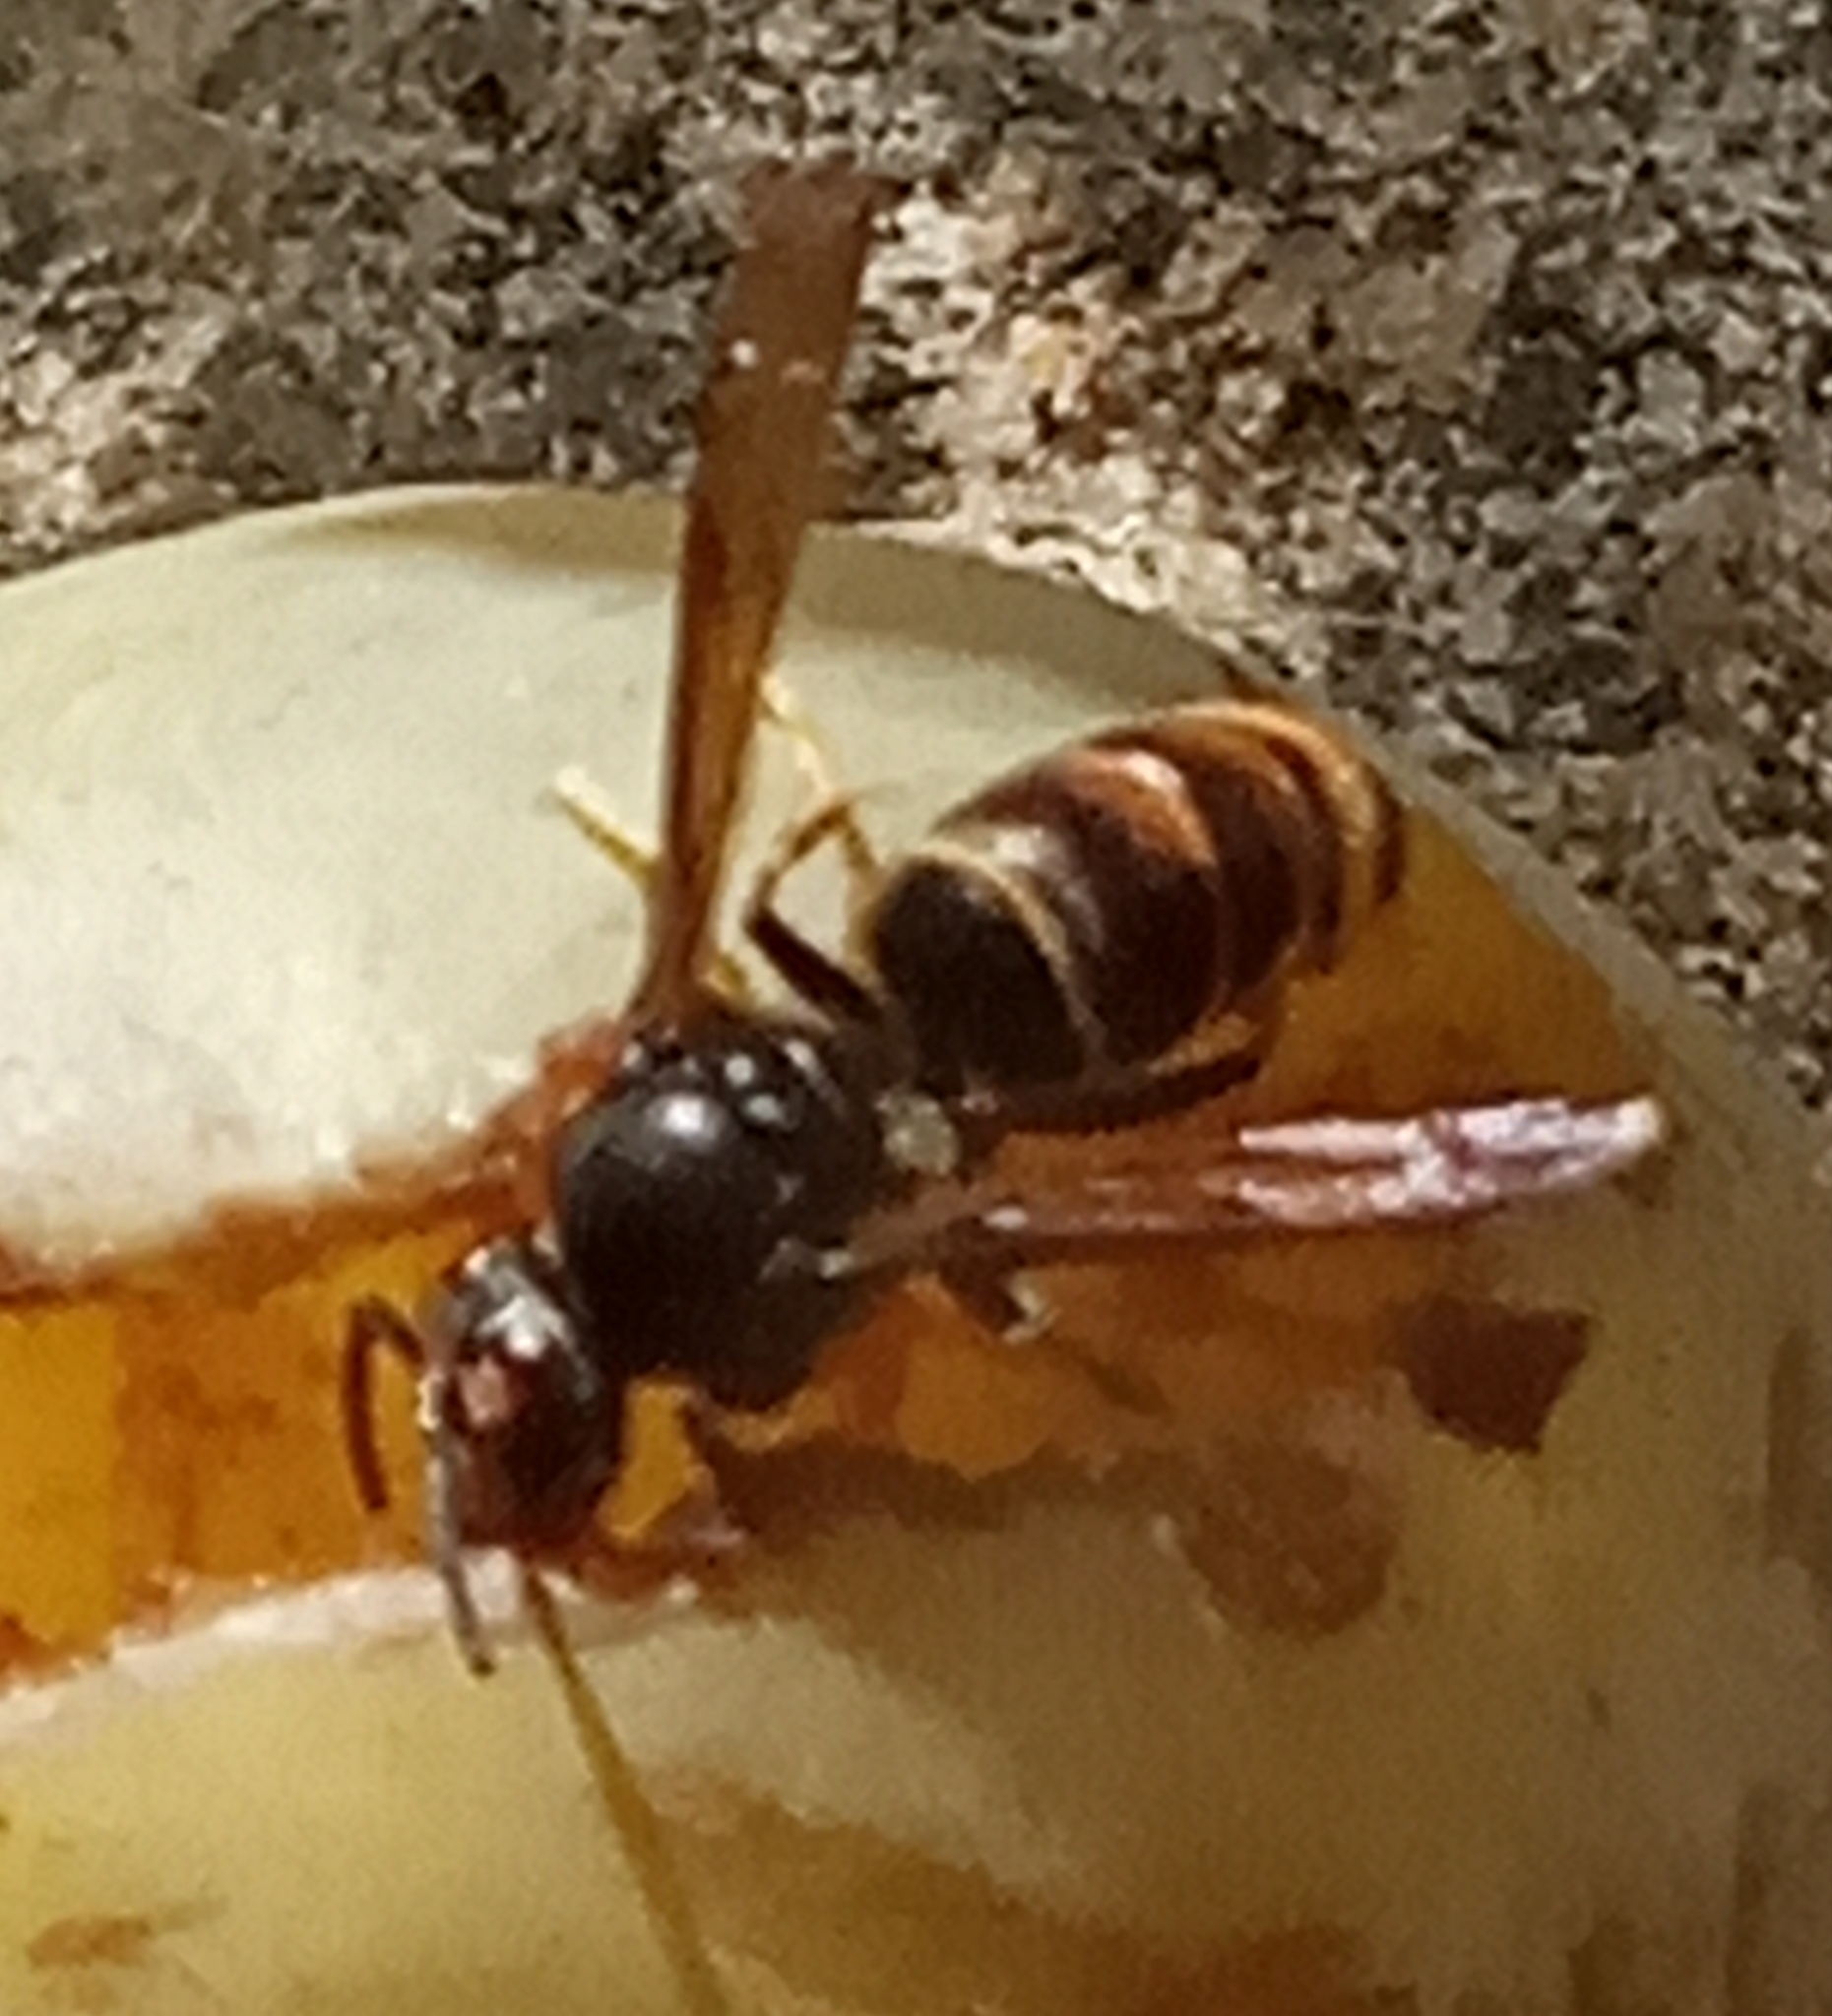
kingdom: Animalia
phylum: Arthropoda
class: Insecta
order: Hymenoptera
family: Vespidae
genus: Vespa
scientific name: Vespa velutina
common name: Asian hornet
